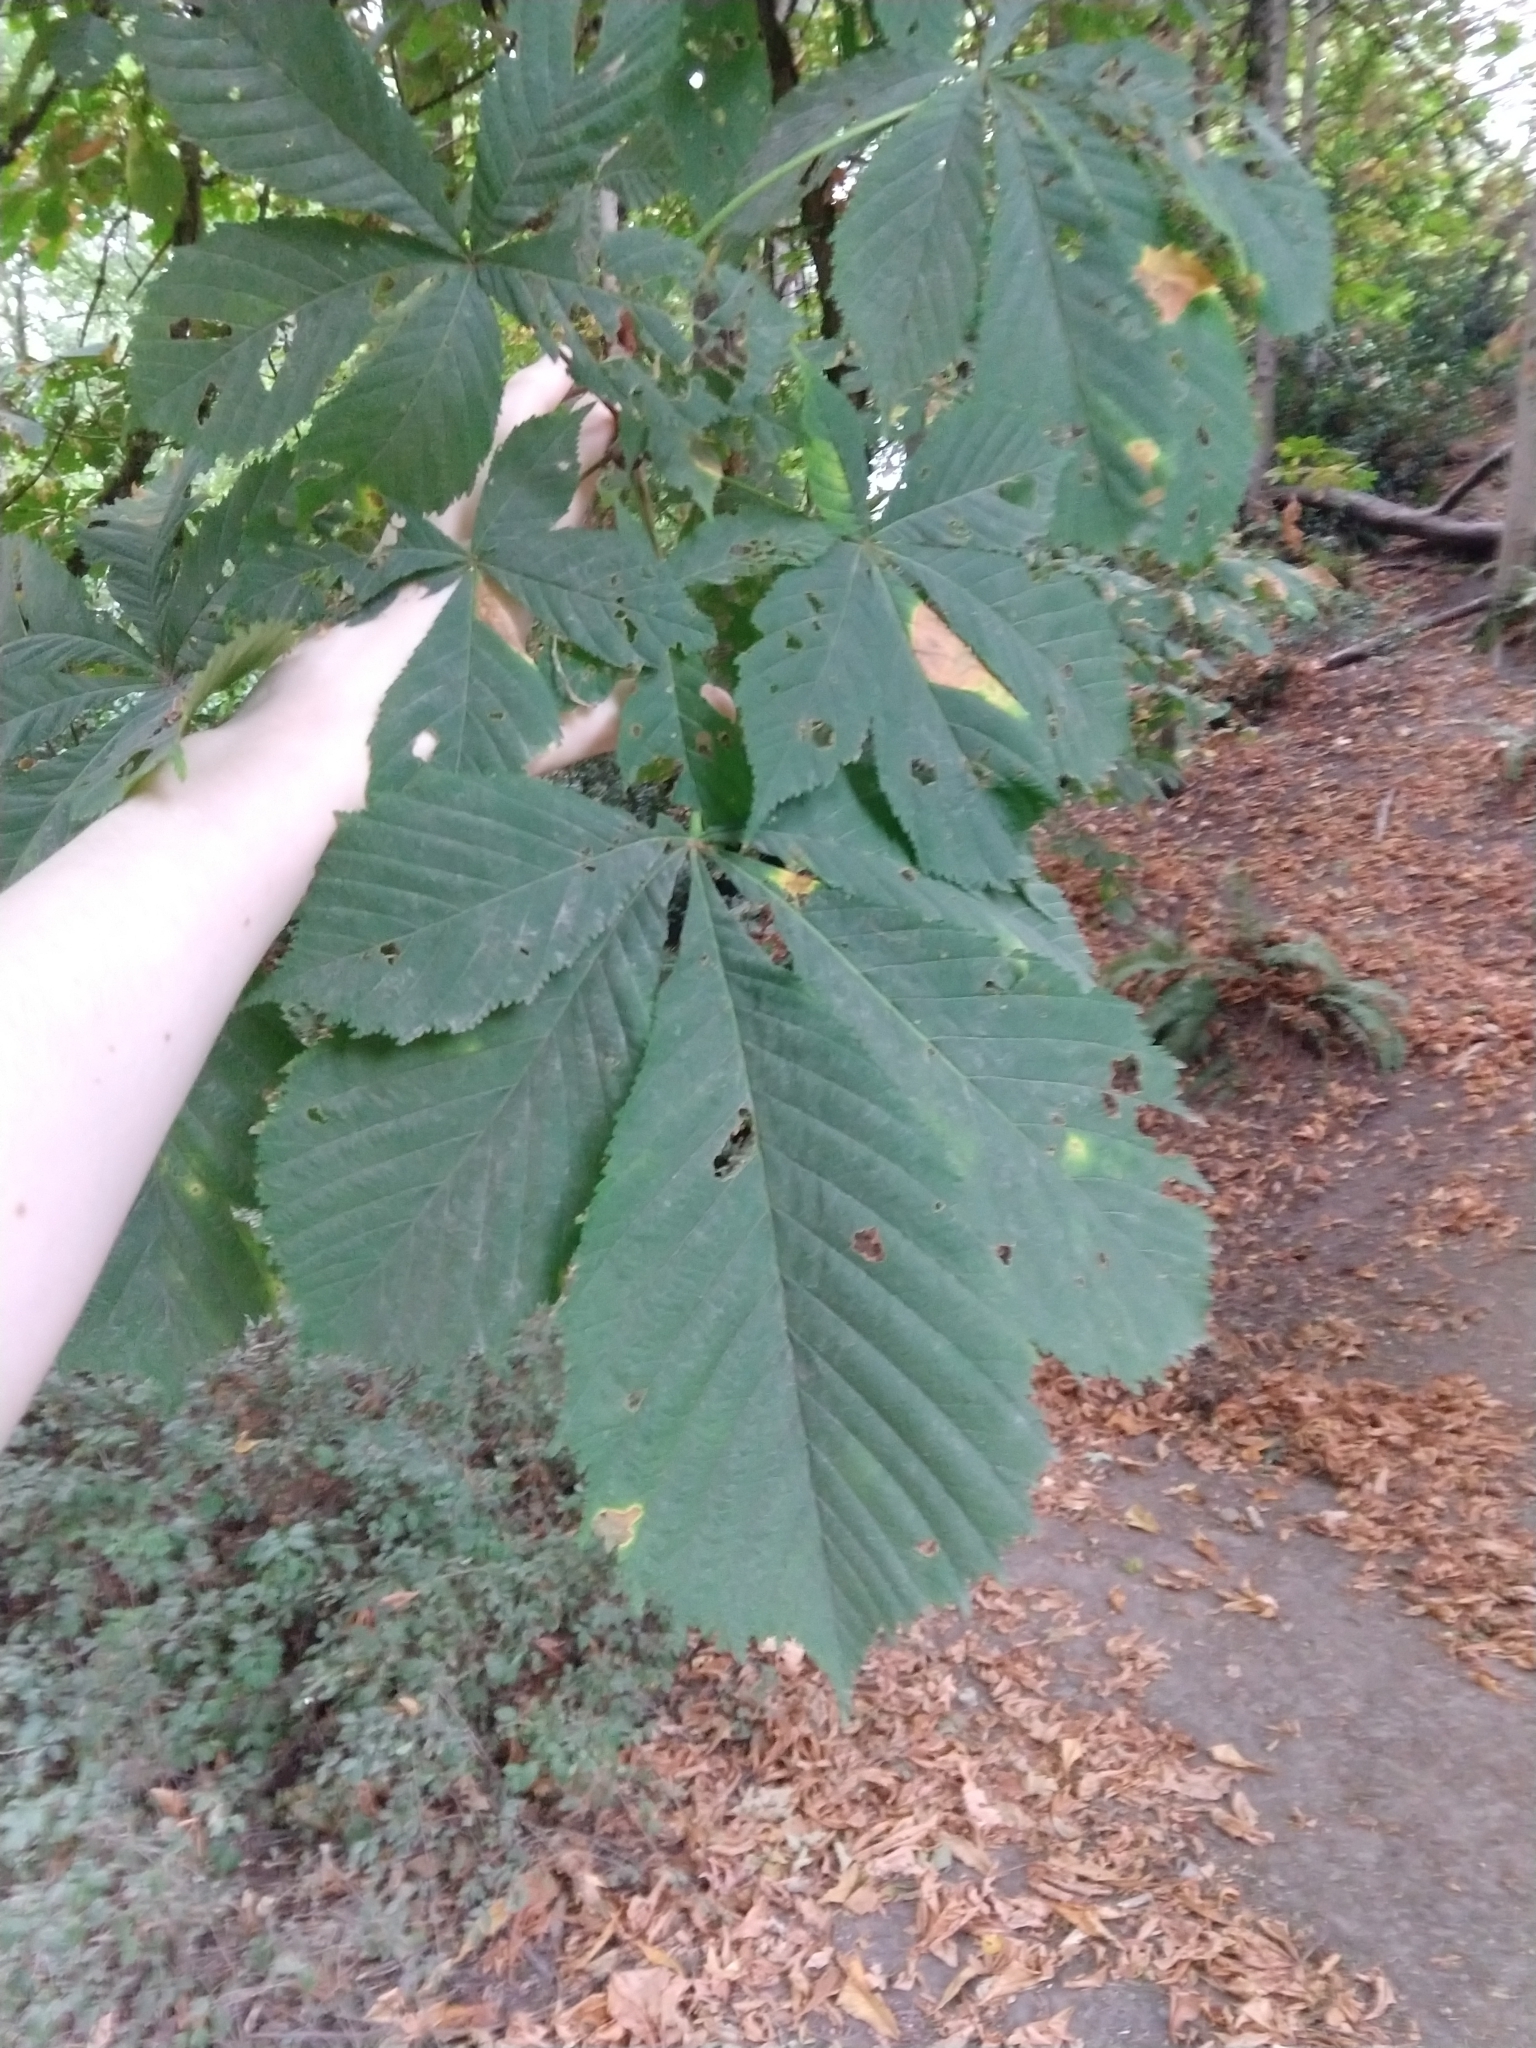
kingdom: Plantae
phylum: Tracheophyta
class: Magnoliopsida
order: Sapindales
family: Sapindaceae
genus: Aesculus
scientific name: Aesculus hippocastanum
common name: Horse-chestnut
